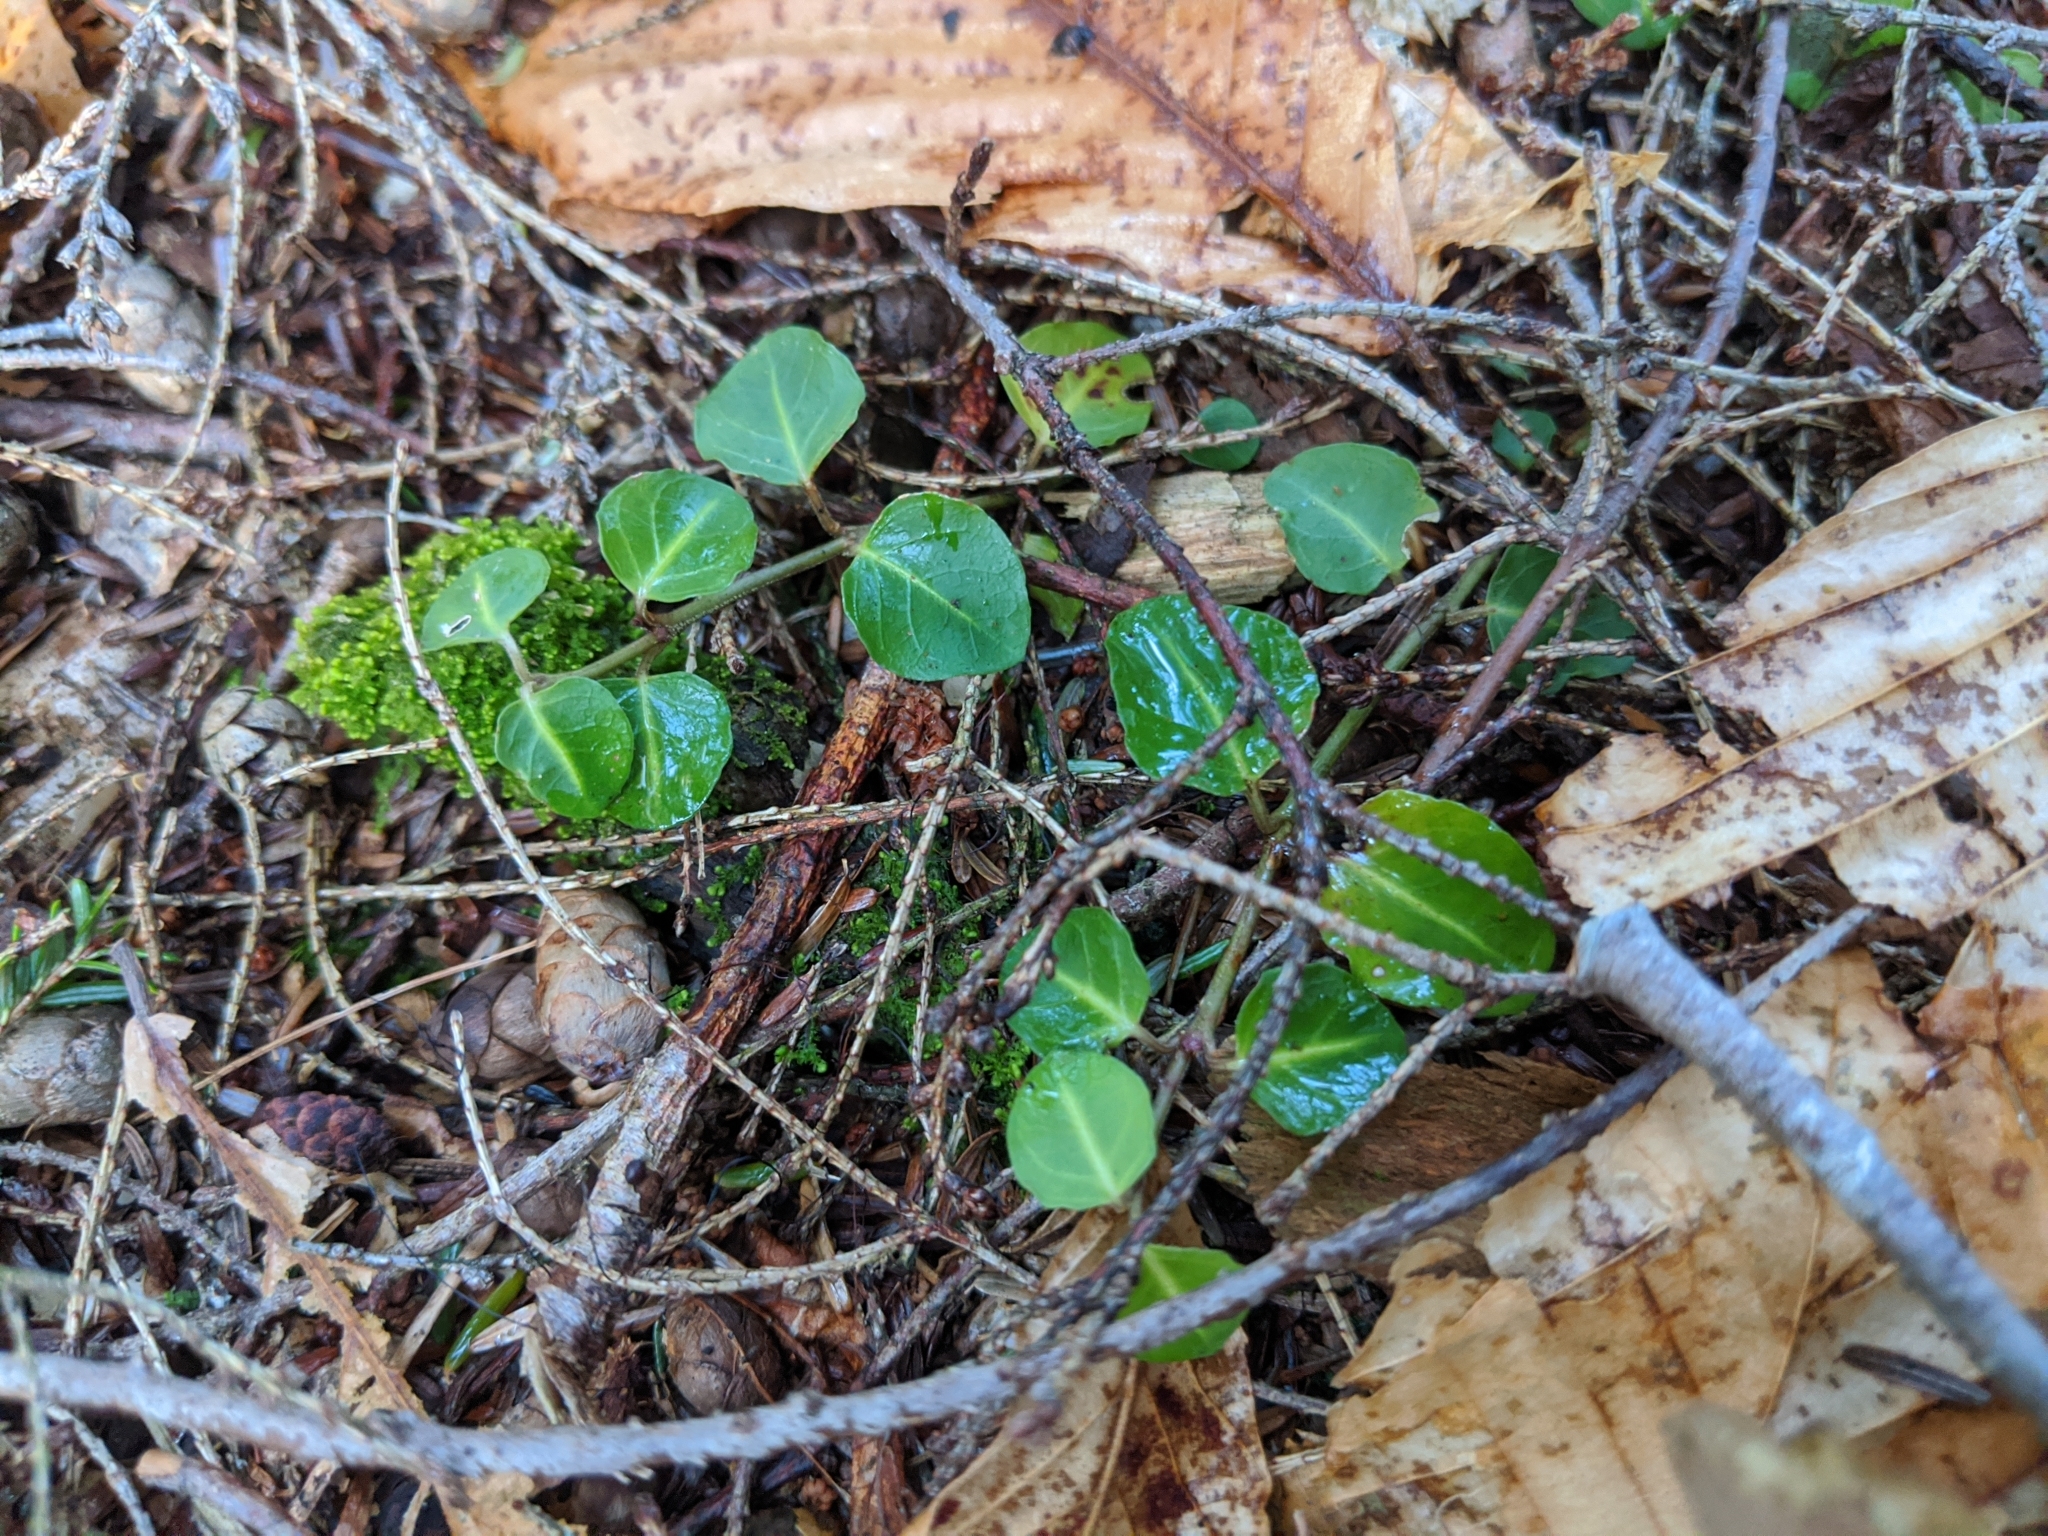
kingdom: Plantae
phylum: Tracheophyta
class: Magnoliopsida
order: Gentianales
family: Rubiaceae
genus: Mitchella
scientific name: Mitchella repens
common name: Partridge-berry
